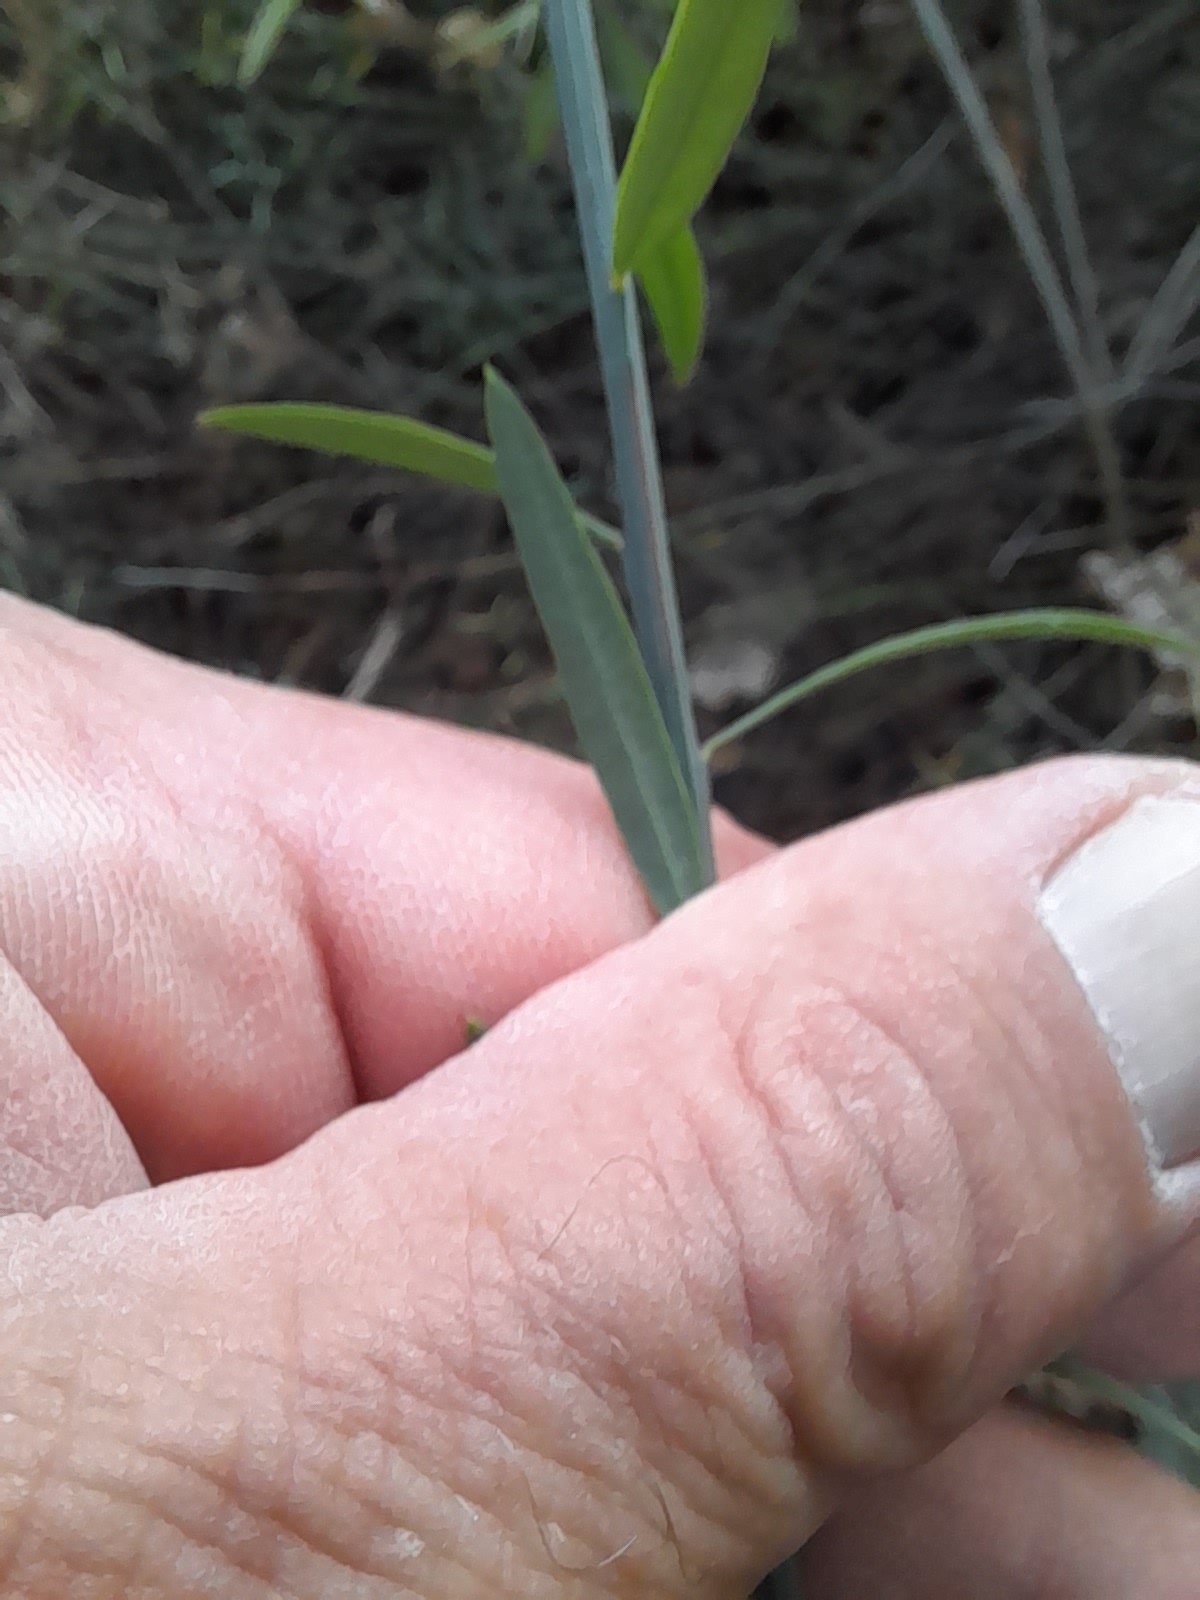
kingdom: Plantae
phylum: Tracheophyta
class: Magnoliopsida
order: Santalales
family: Santalaceae
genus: Osyris
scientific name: Osyris alba
